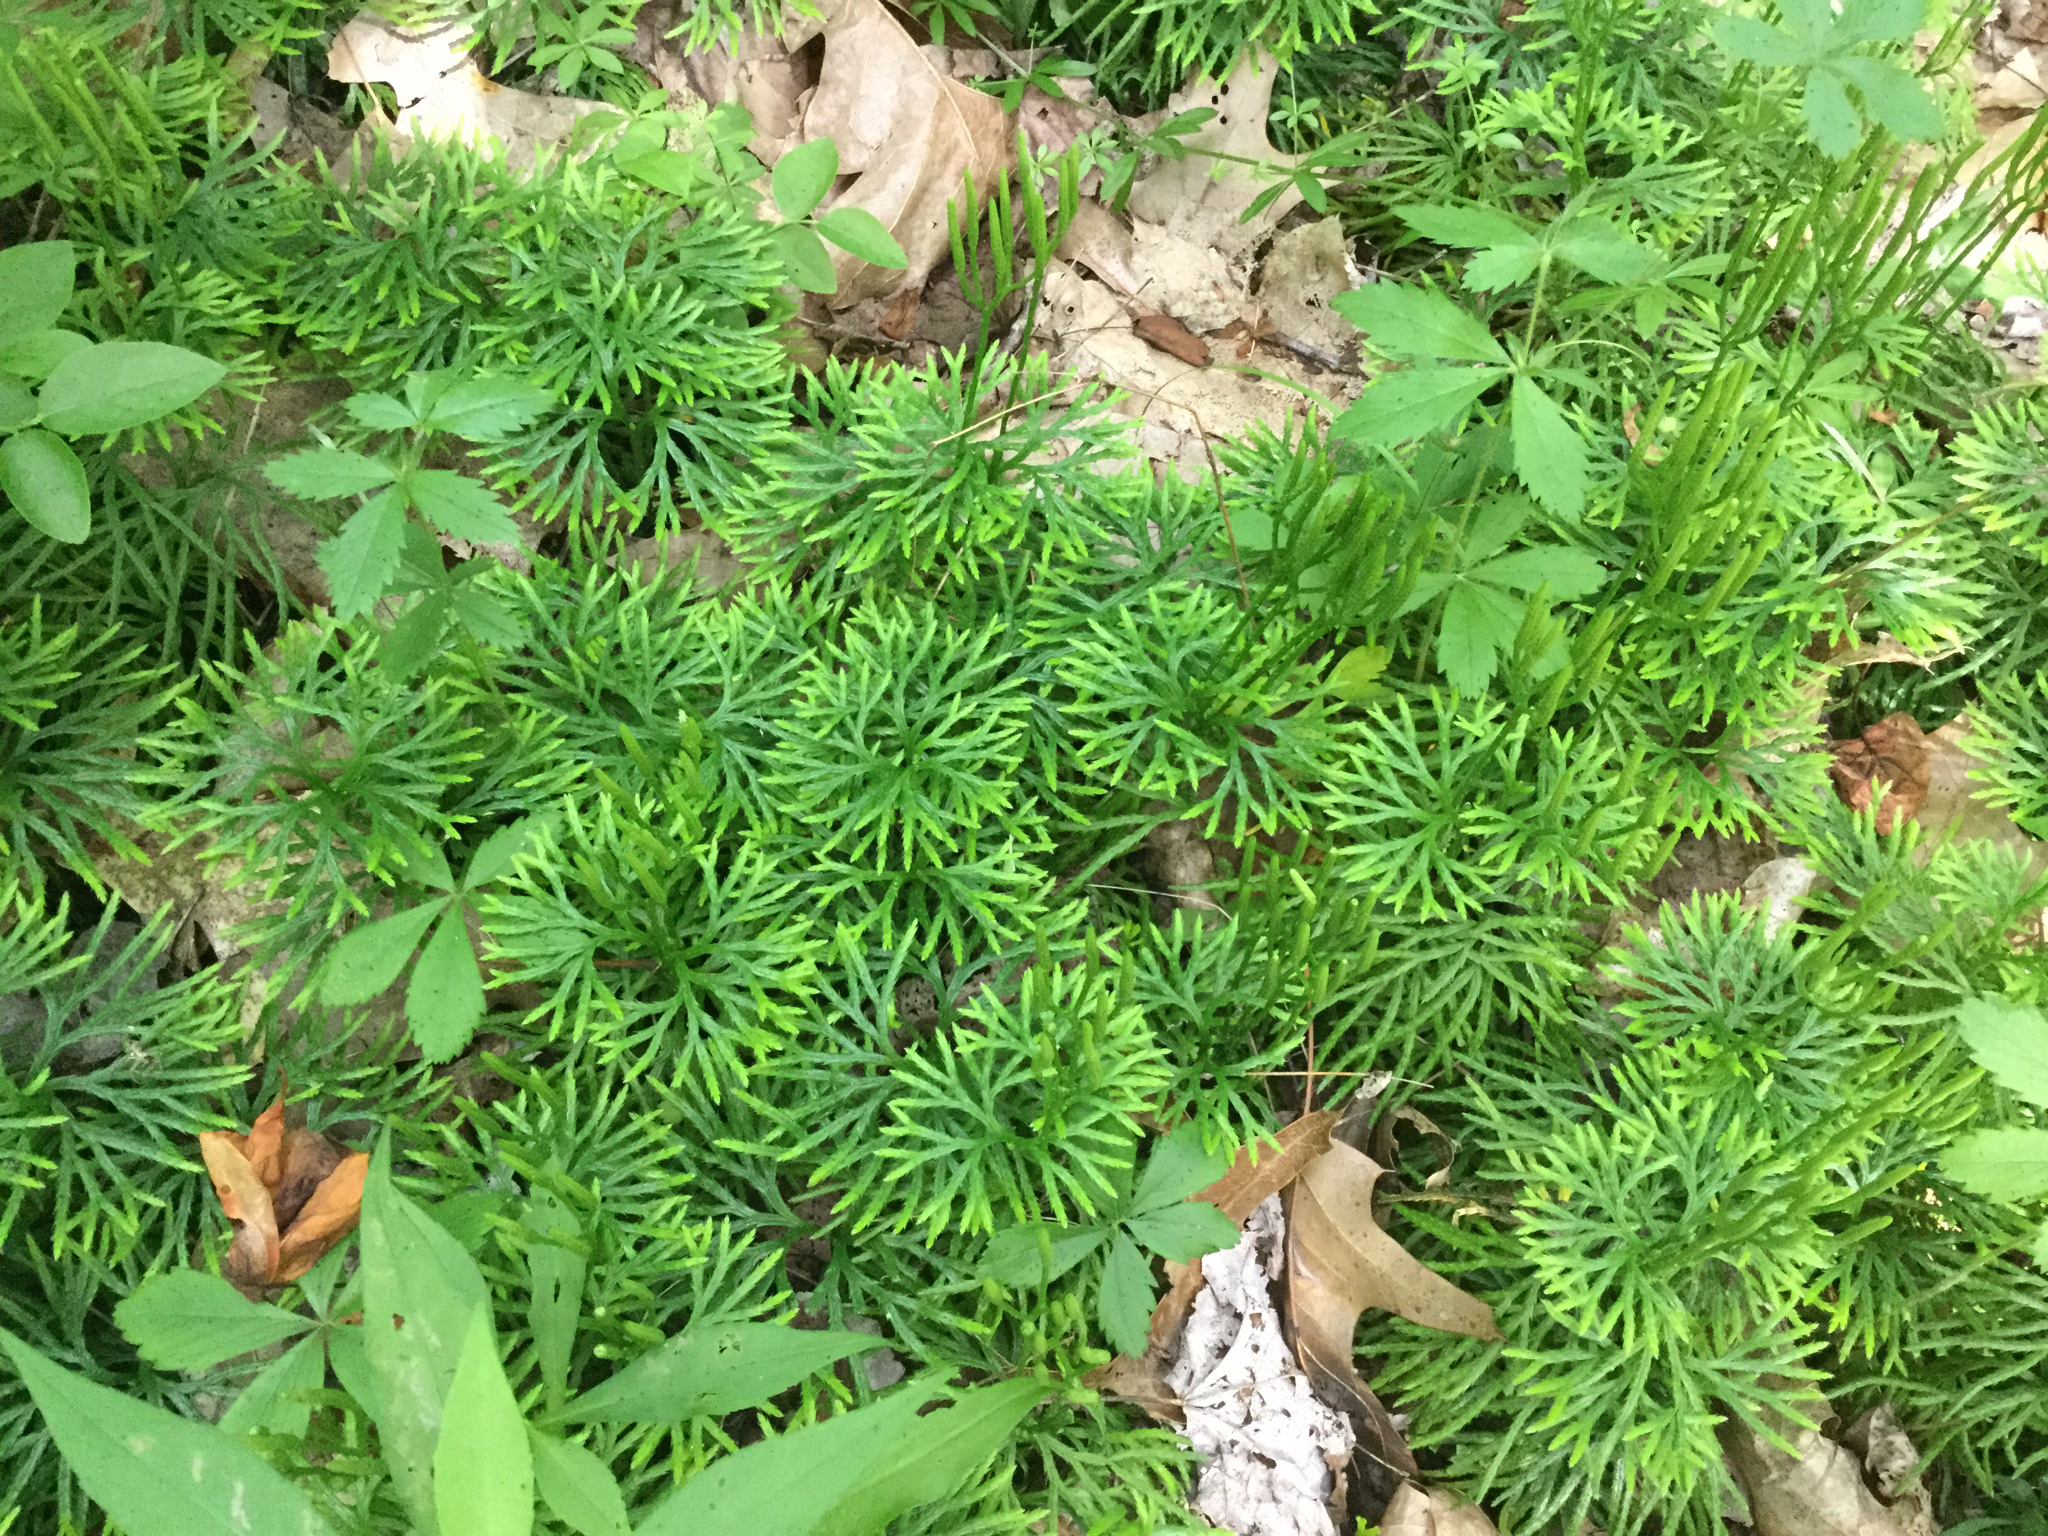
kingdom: Plantae
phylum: Tracheophyta
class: Lycopodiopsida
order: Lycopodiales
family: Lycopodiaceae
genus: Diphasiastrum
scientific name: Diphasiastrum digitatum
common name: Southern running-pine
